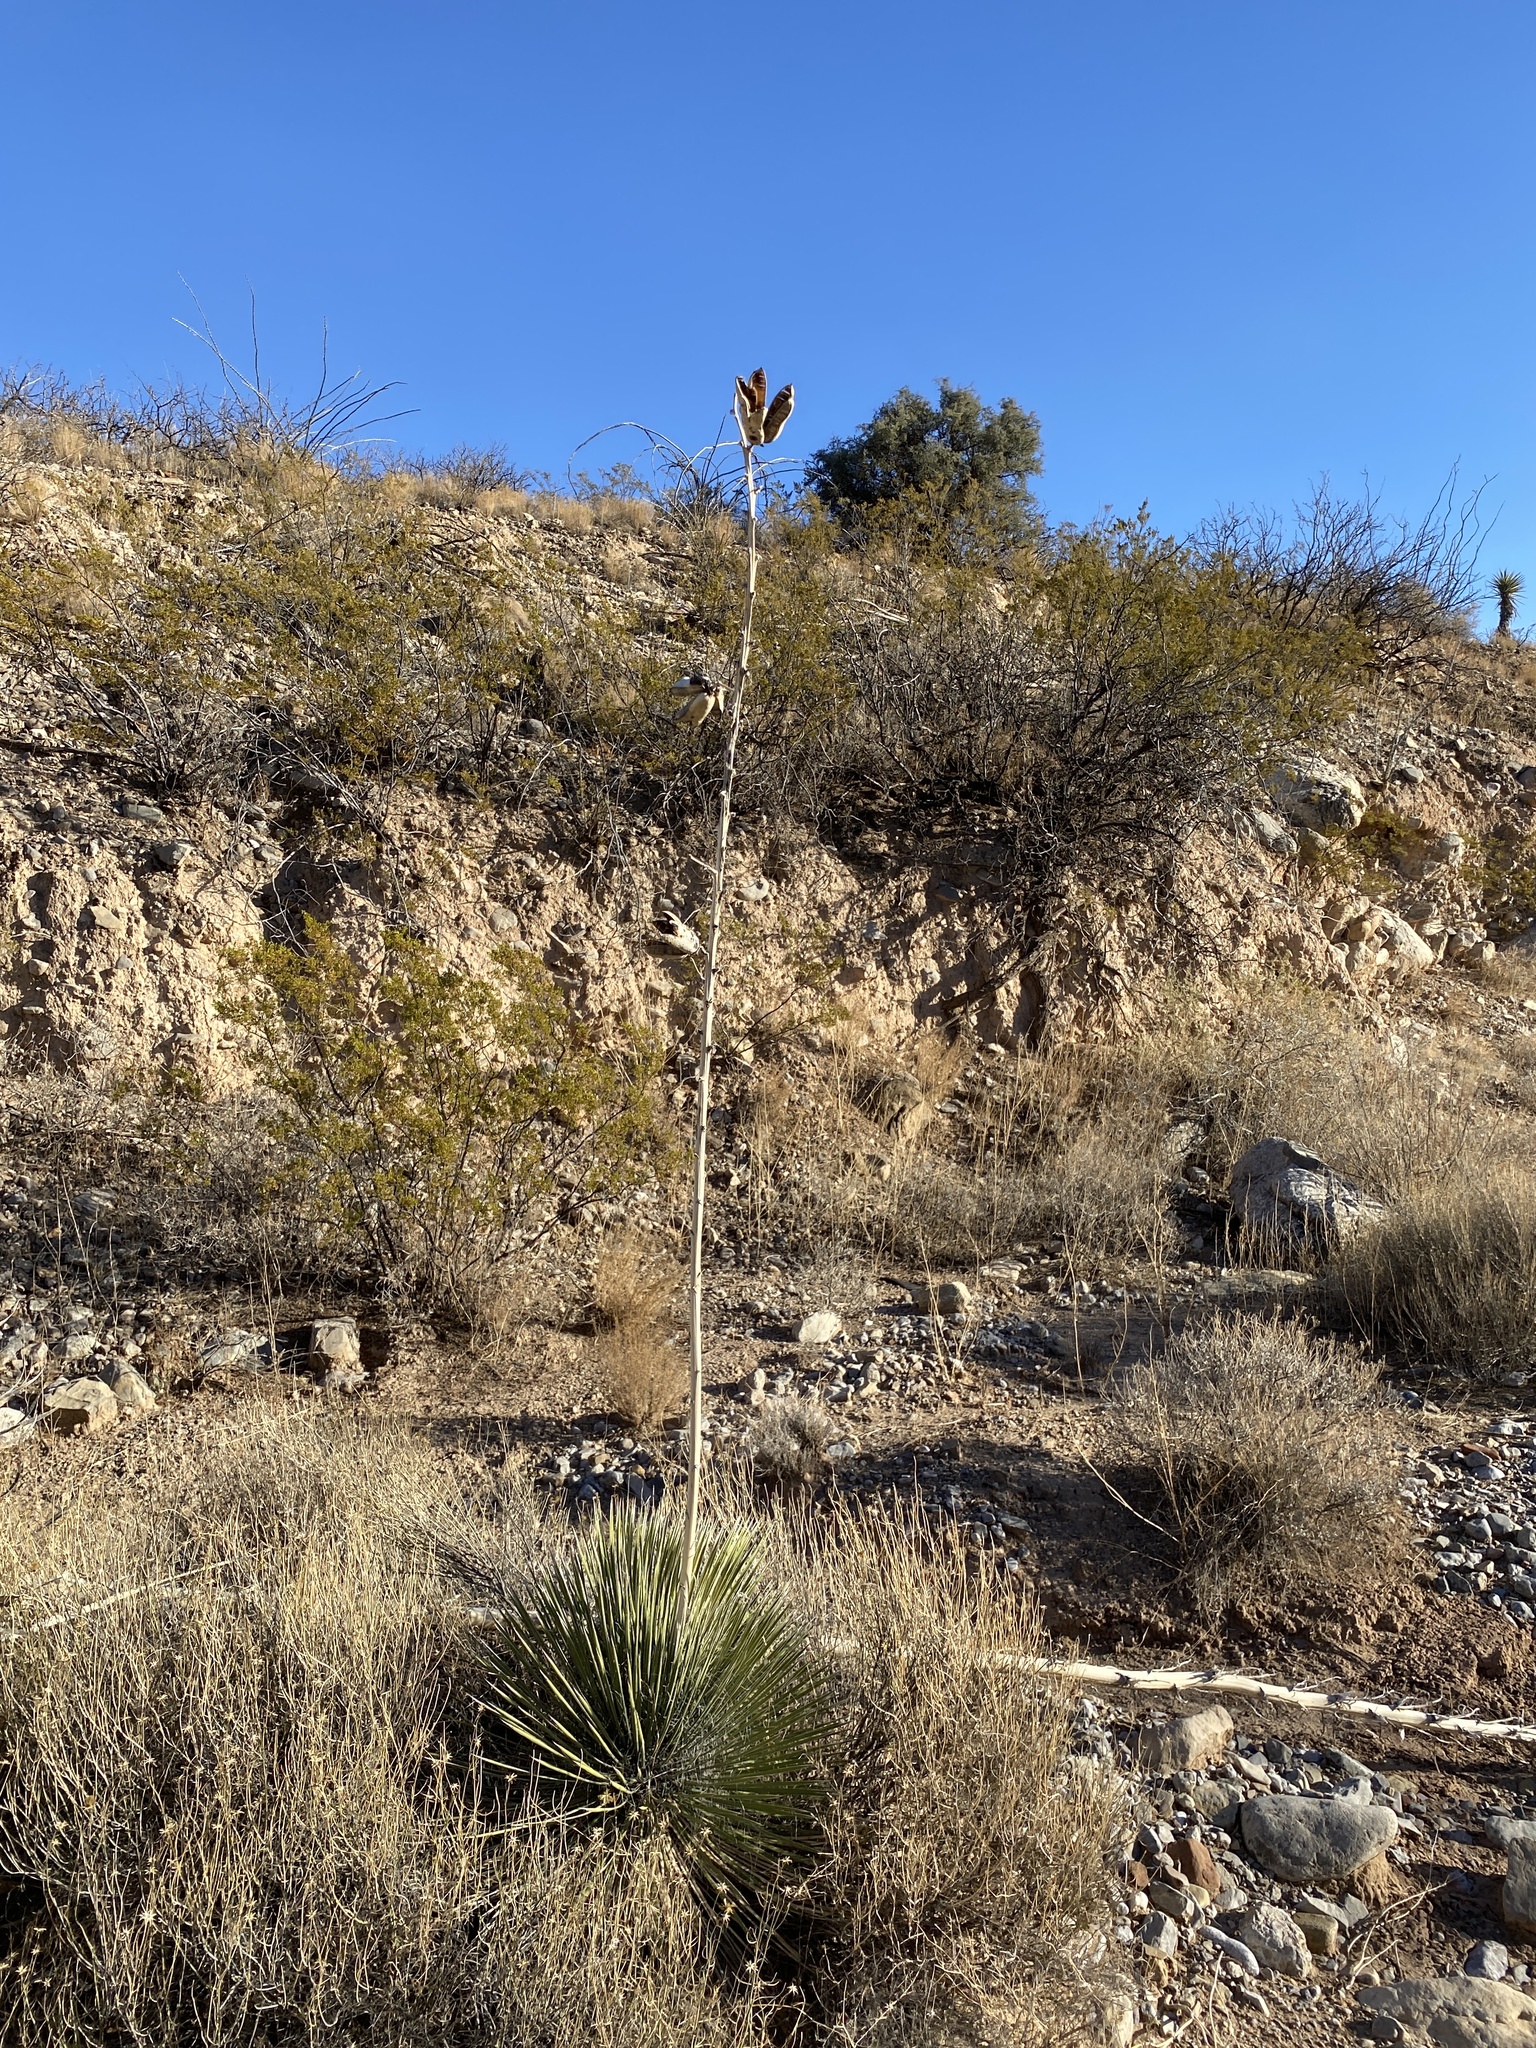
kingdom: Plantae
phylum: Tracheophyta
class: Liliopsida
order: Asparagales
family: Asparagaceae
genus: Yucca
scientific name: Yucca elata
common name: Palmella
